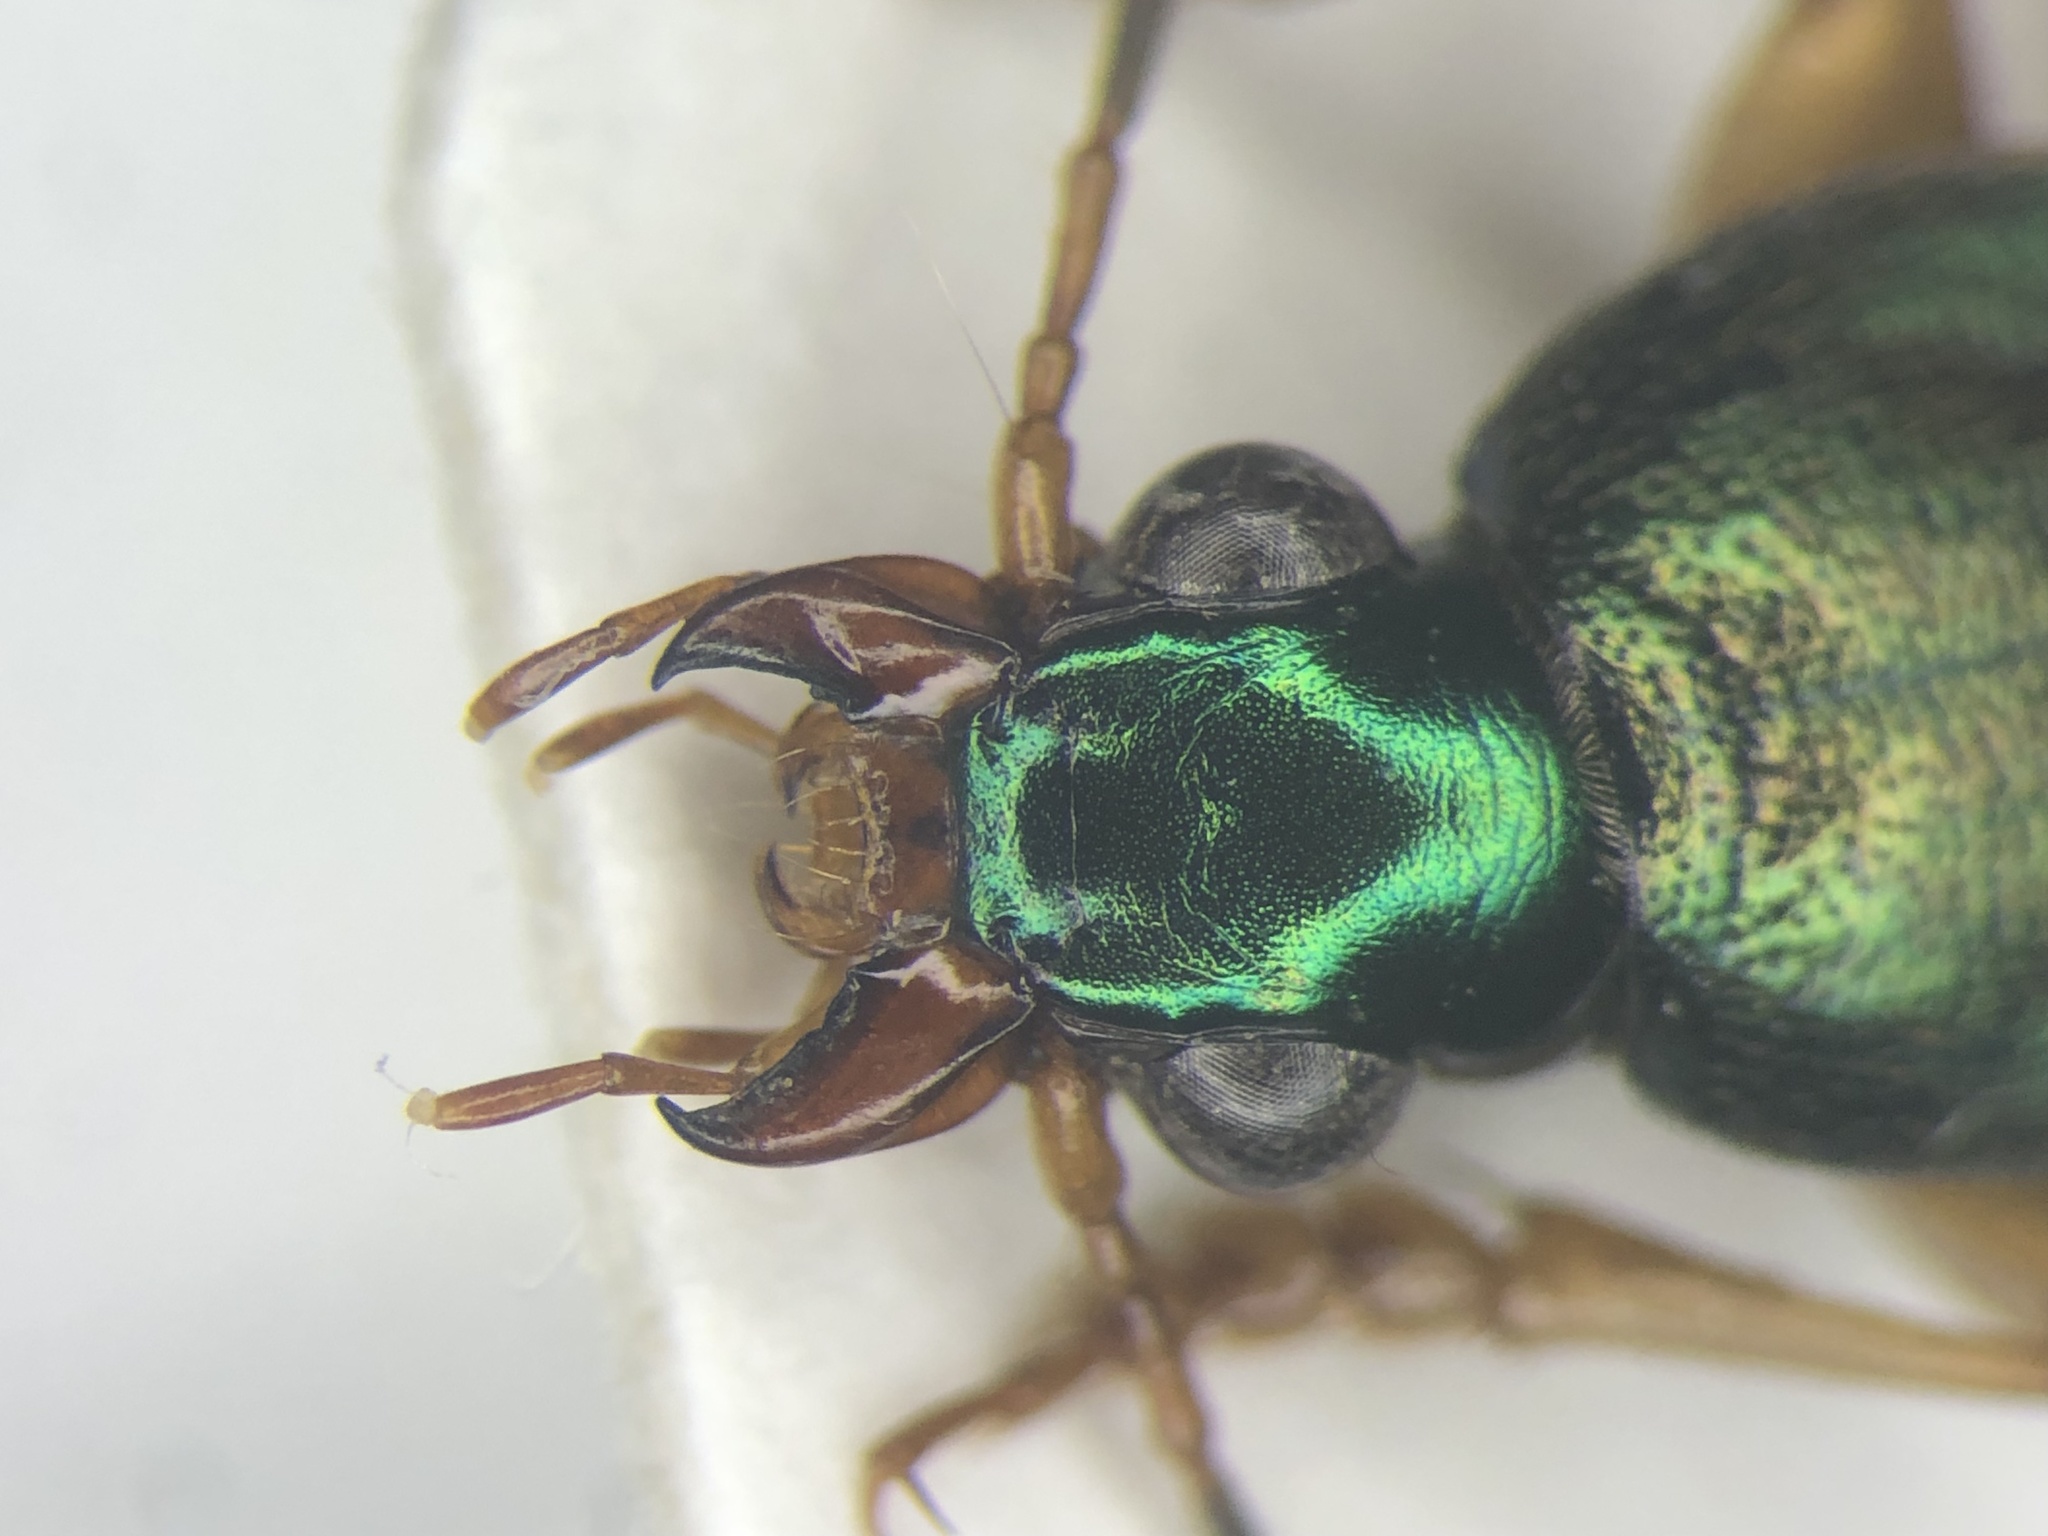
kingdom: Animalia
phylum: Arthropoda
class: Insecta
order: Coleoptera
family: Carabidae
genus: Chlaenius
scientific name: Chlaenius pennsylvanicus
